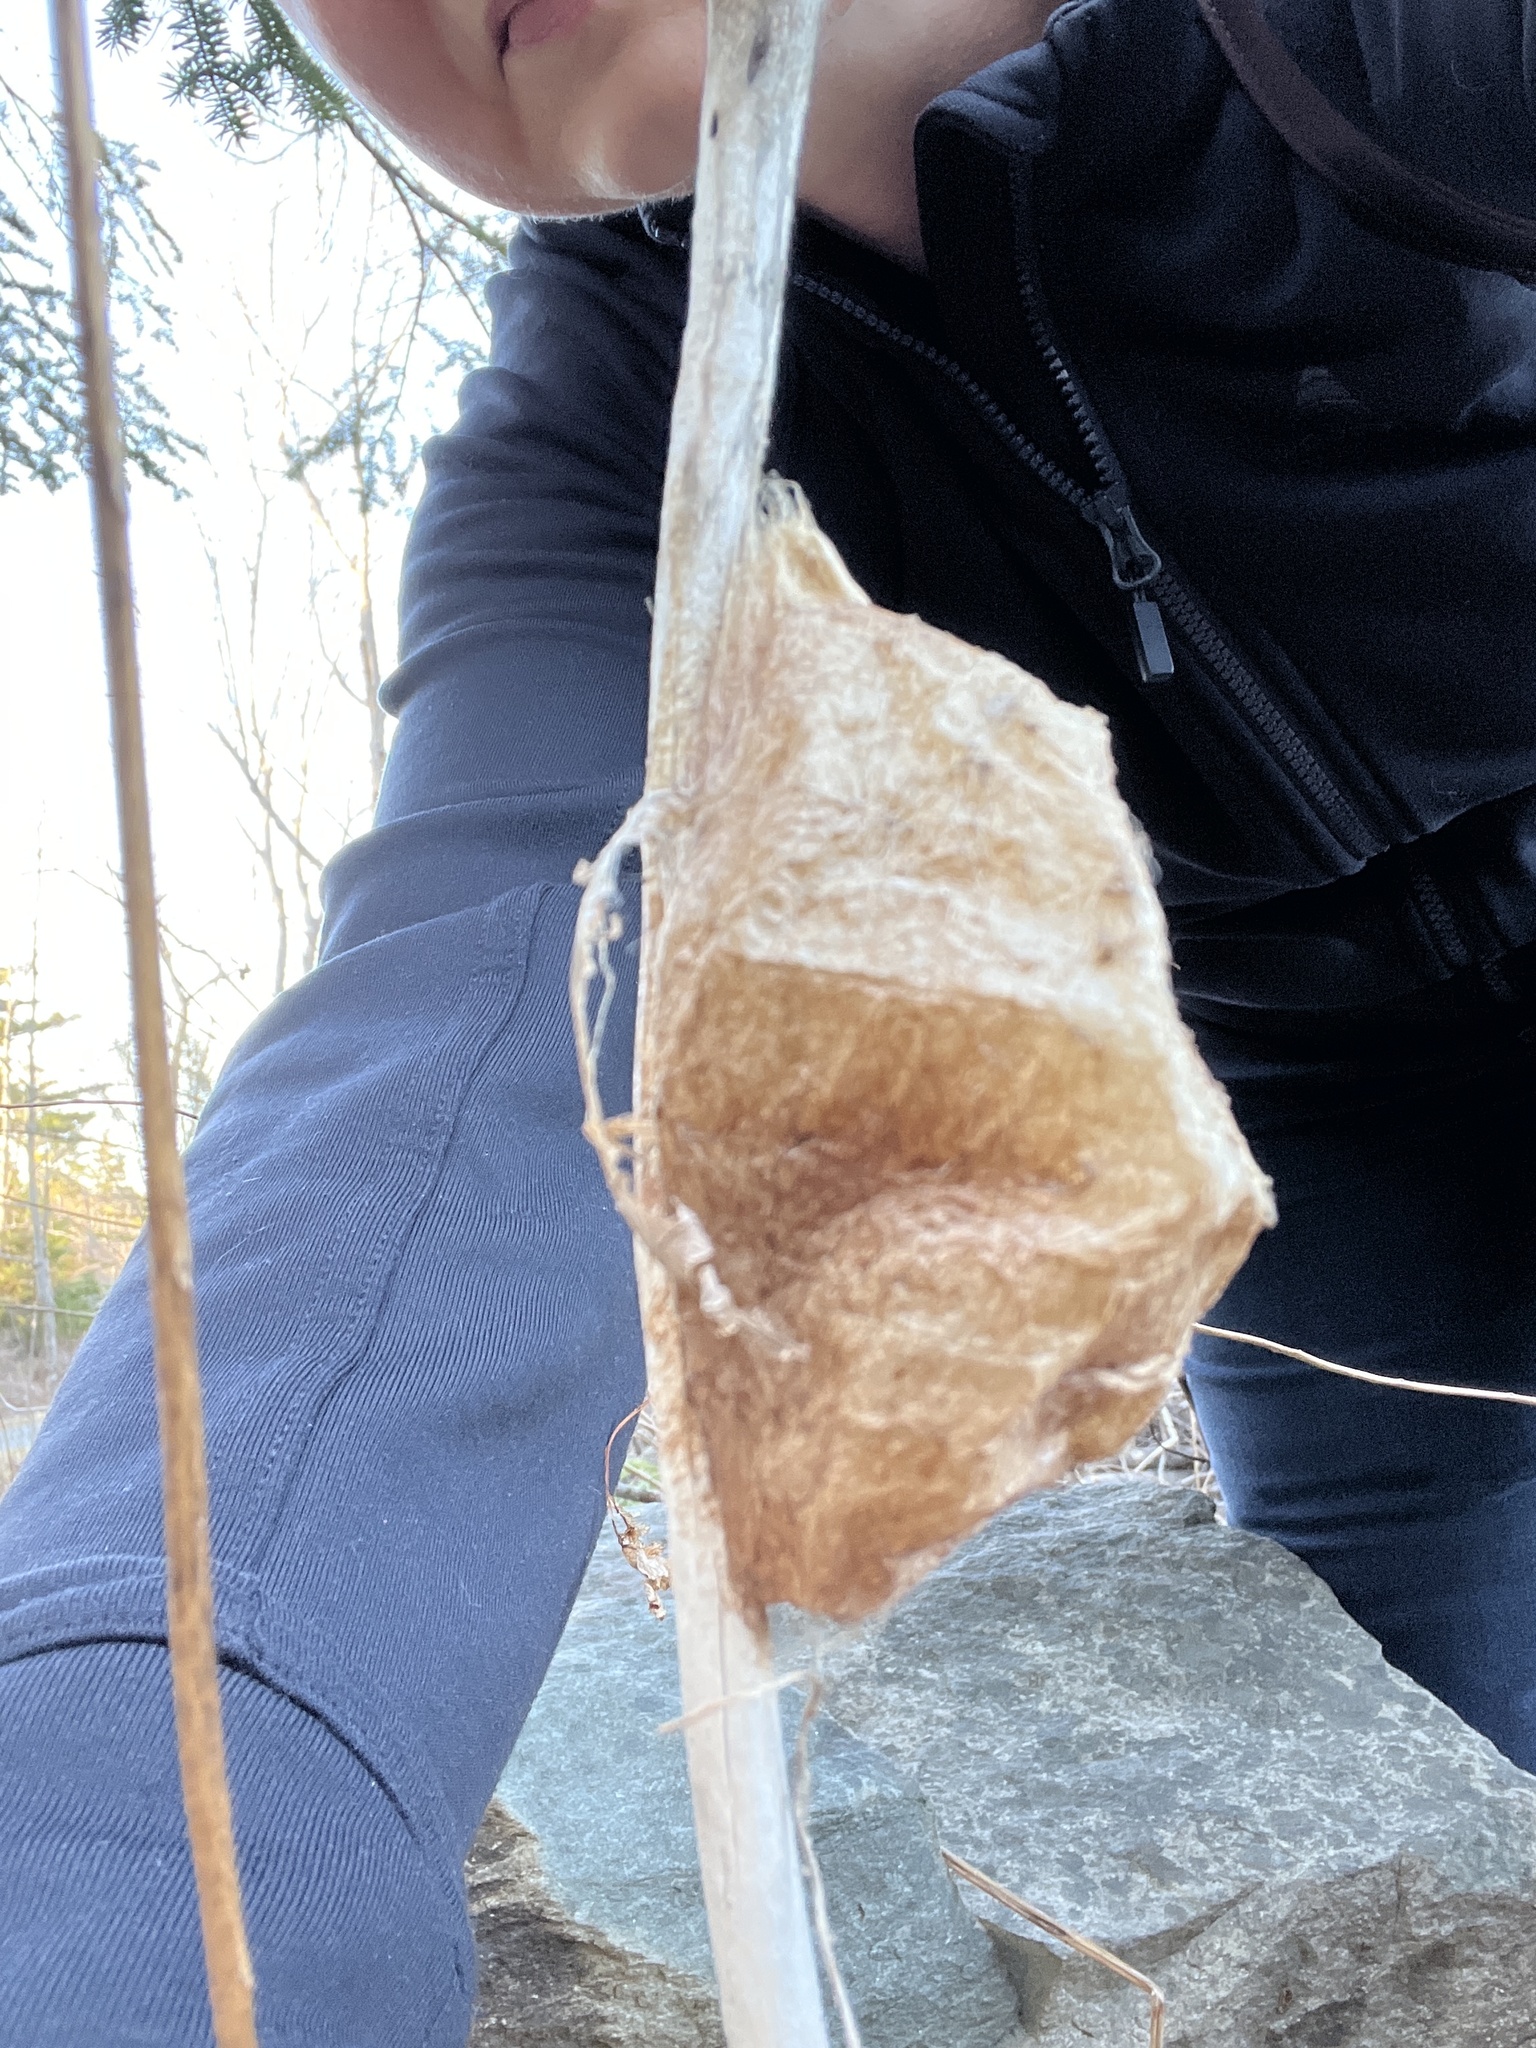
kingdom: Animalia
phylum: Arthropoda
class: Insecta
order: Lepidoptera
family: Saturniidae
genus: Hyalophora
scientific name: Hyalophora cecropia
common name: Cecropia silkmoth
